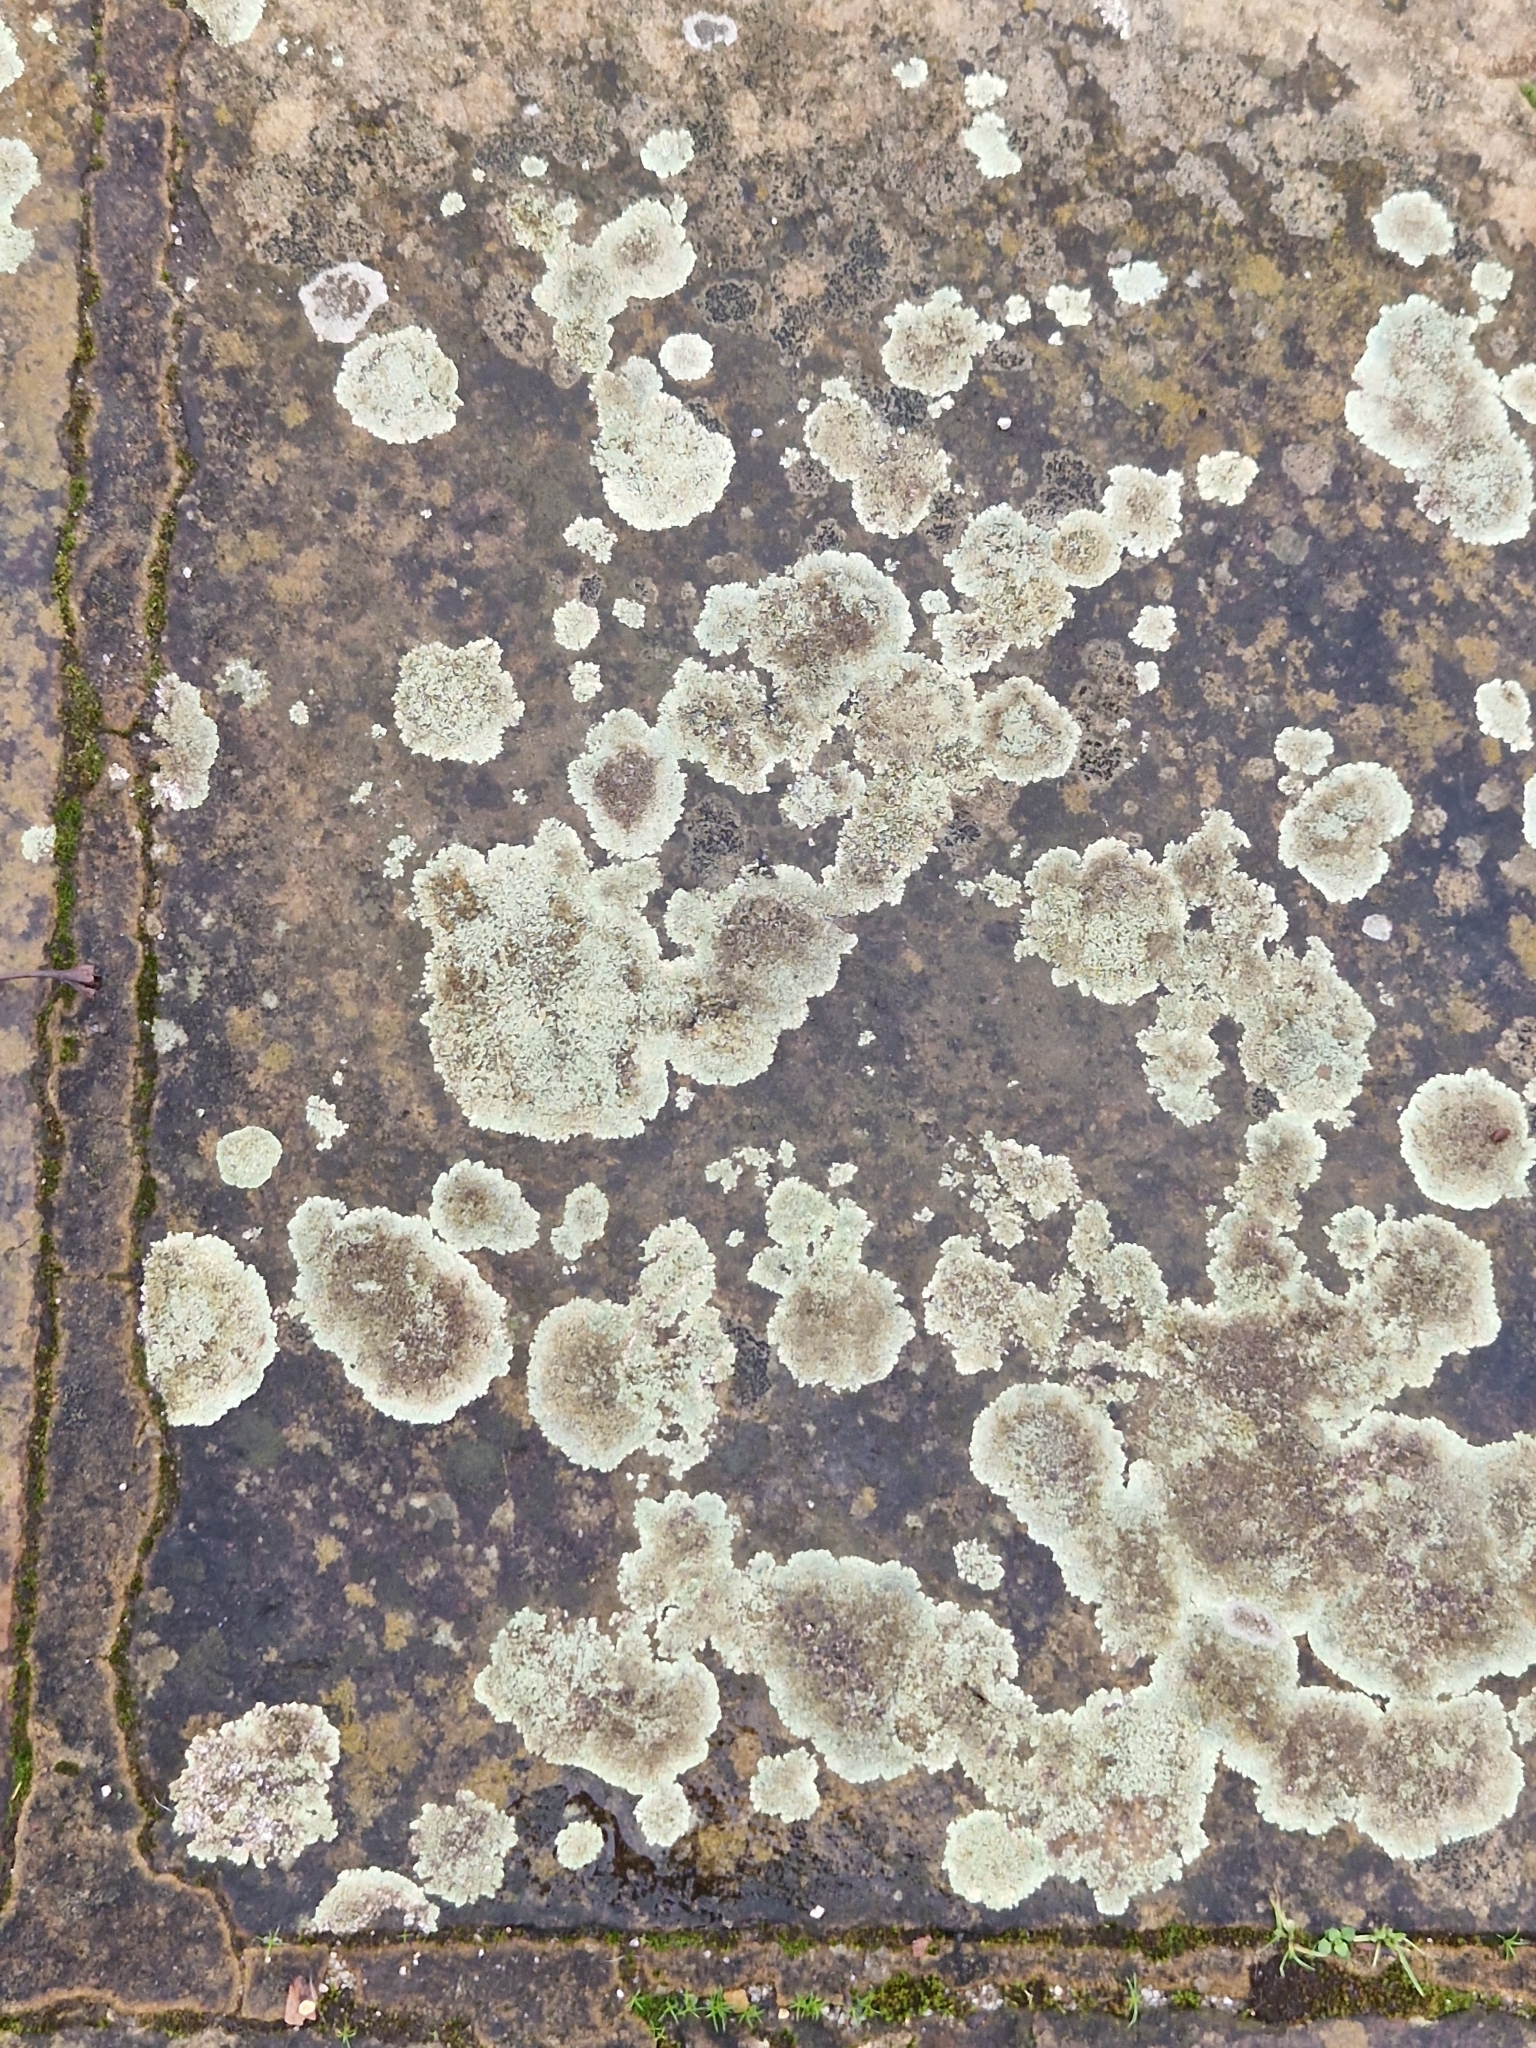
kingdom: Fungi
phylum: Ascomycota
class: Lecanoromycetes
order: Lecanorales
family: Lecanoraceae
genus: Protoparmeliopsis
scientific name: Protoparmeliopsis muralis
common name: Stonewall rim lichen
